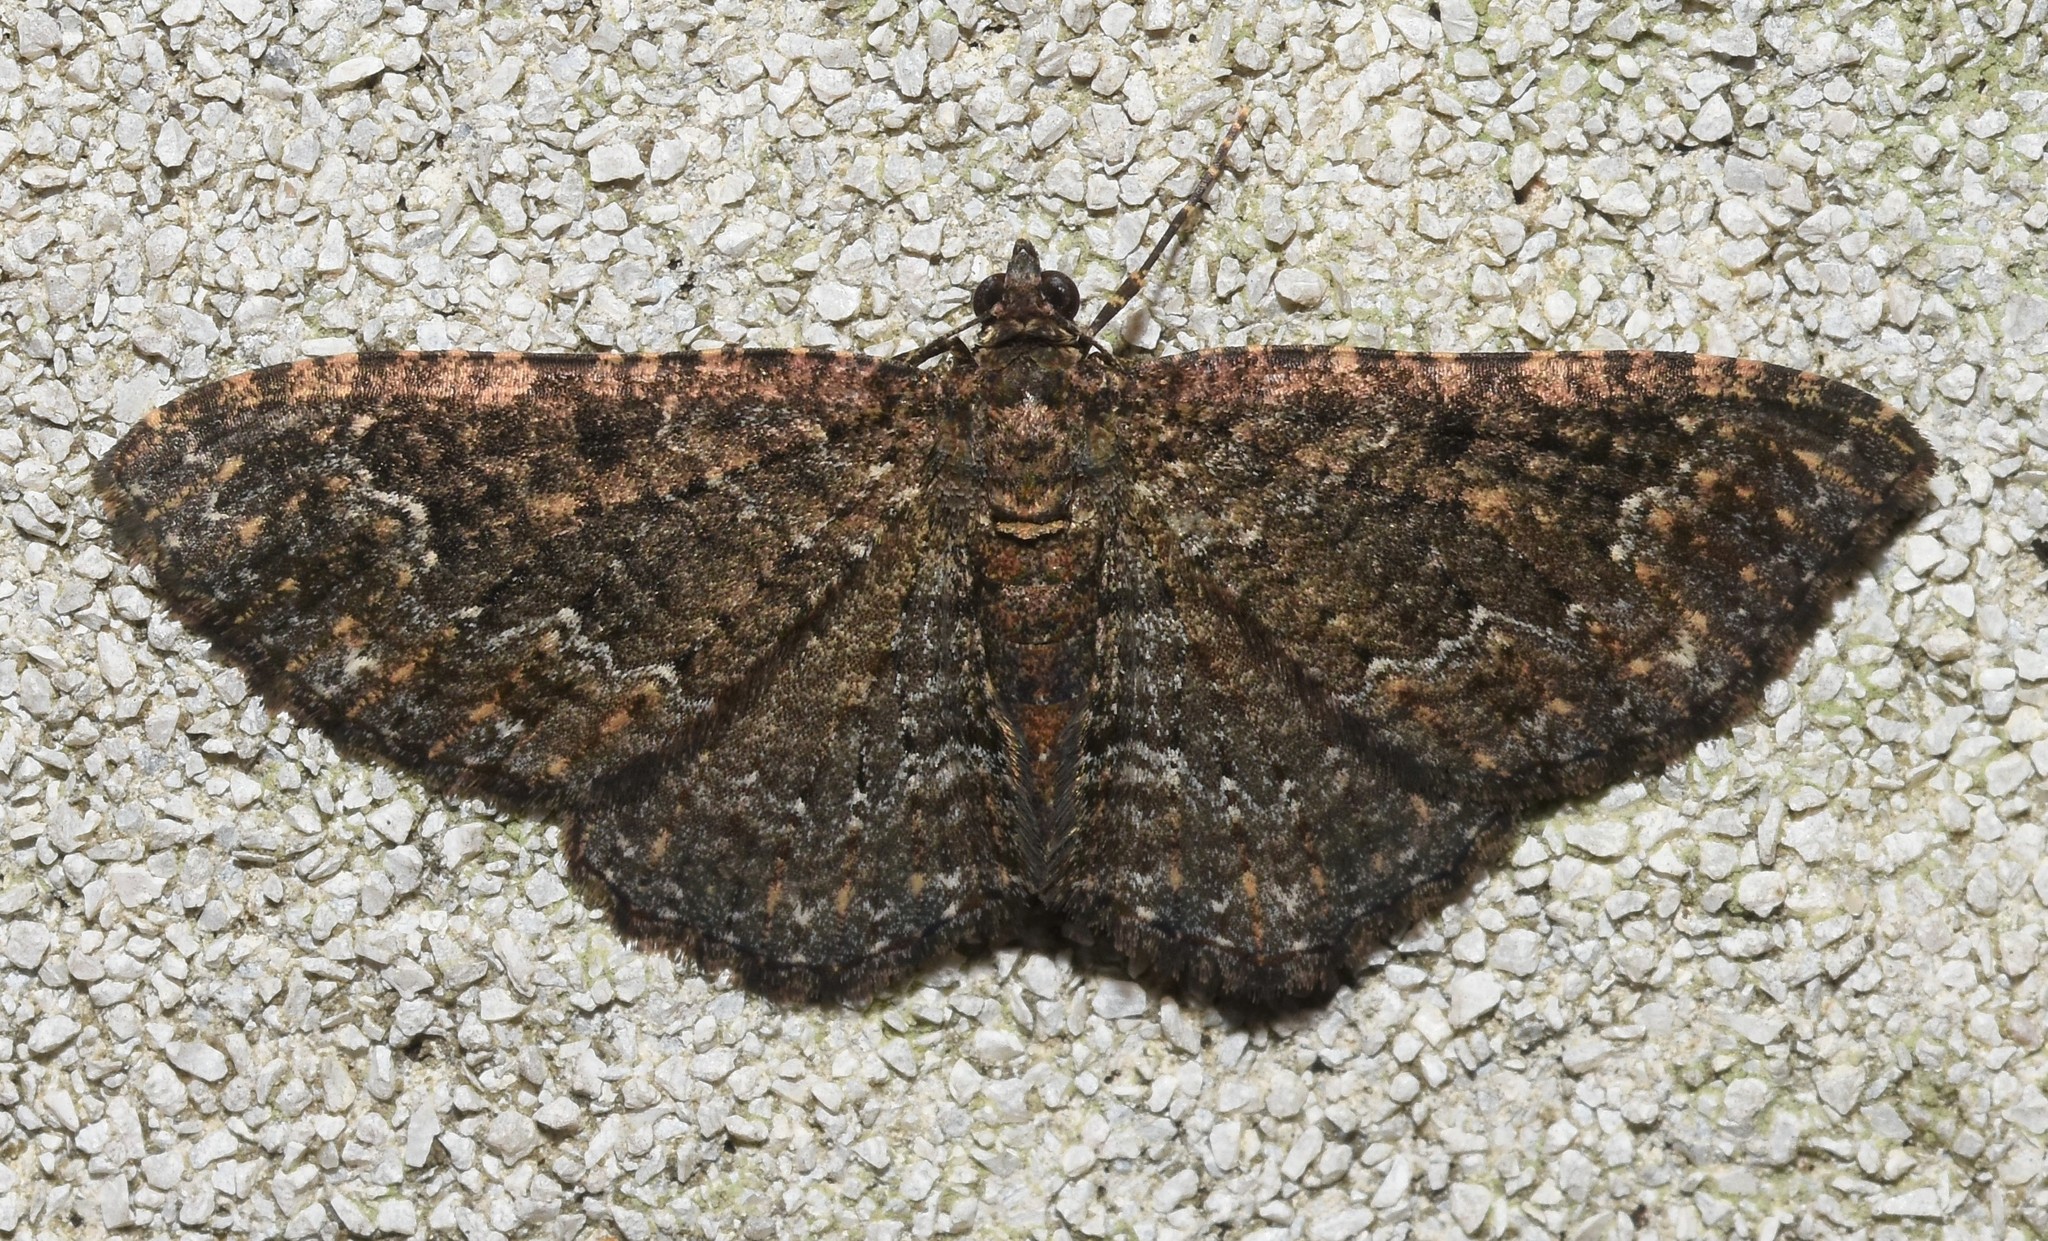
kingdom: Animalia
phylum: Arthropoda
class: Insecta
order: Lepidoptera
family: Geometridae
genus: Disclisioprocta
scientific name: Disclisioprocta stellata
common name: Somber carpet
